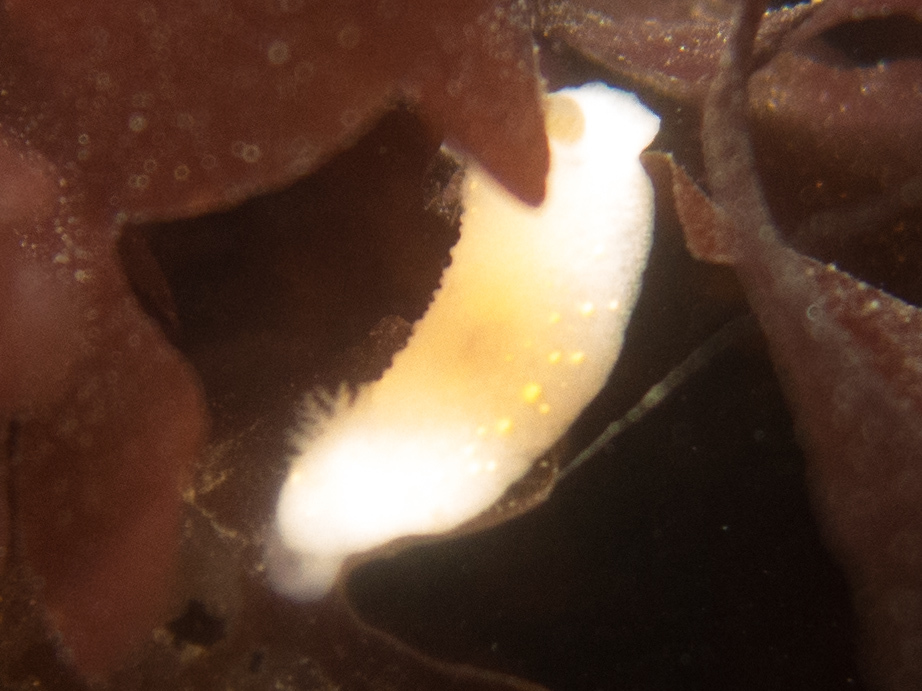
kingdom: Animalia
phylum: Mollusca
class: Gastropoda
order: Nudibranchia
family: Cadlinidae
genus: Cadlina
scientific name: Cadlina modesta
